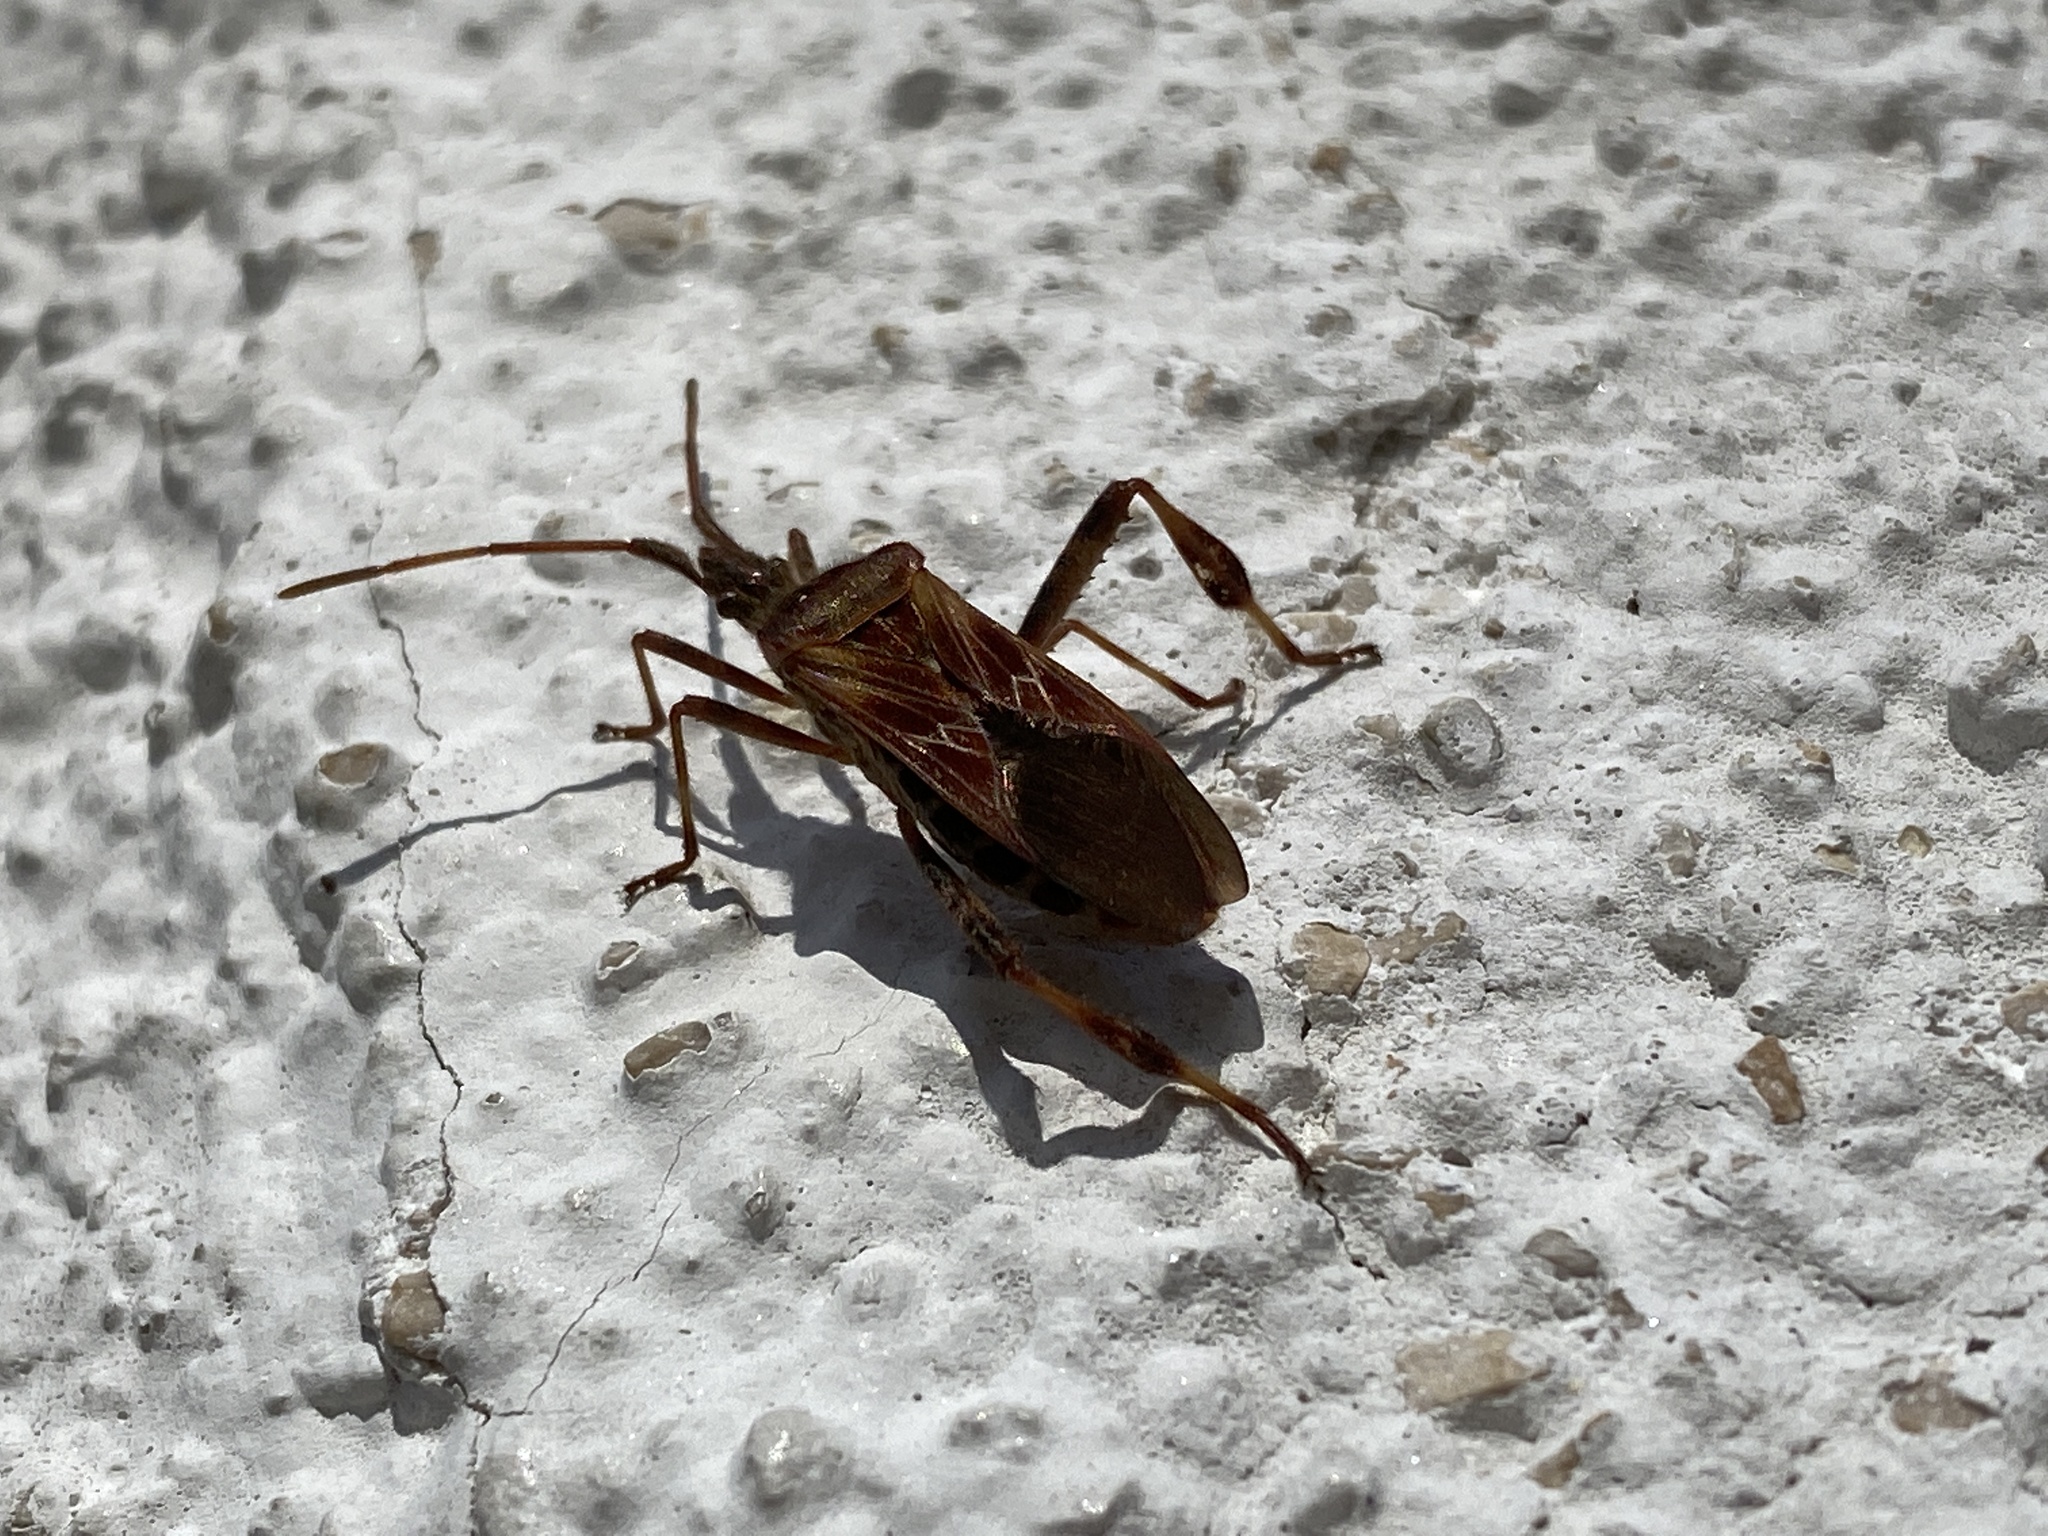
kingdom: Animalia
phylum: Arthropoda
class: Insecta
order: Hemiptera
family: Coreidae
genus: Leptoglossus
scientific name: Leptoglossus occidentalis
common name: Western conifer-seed bug
